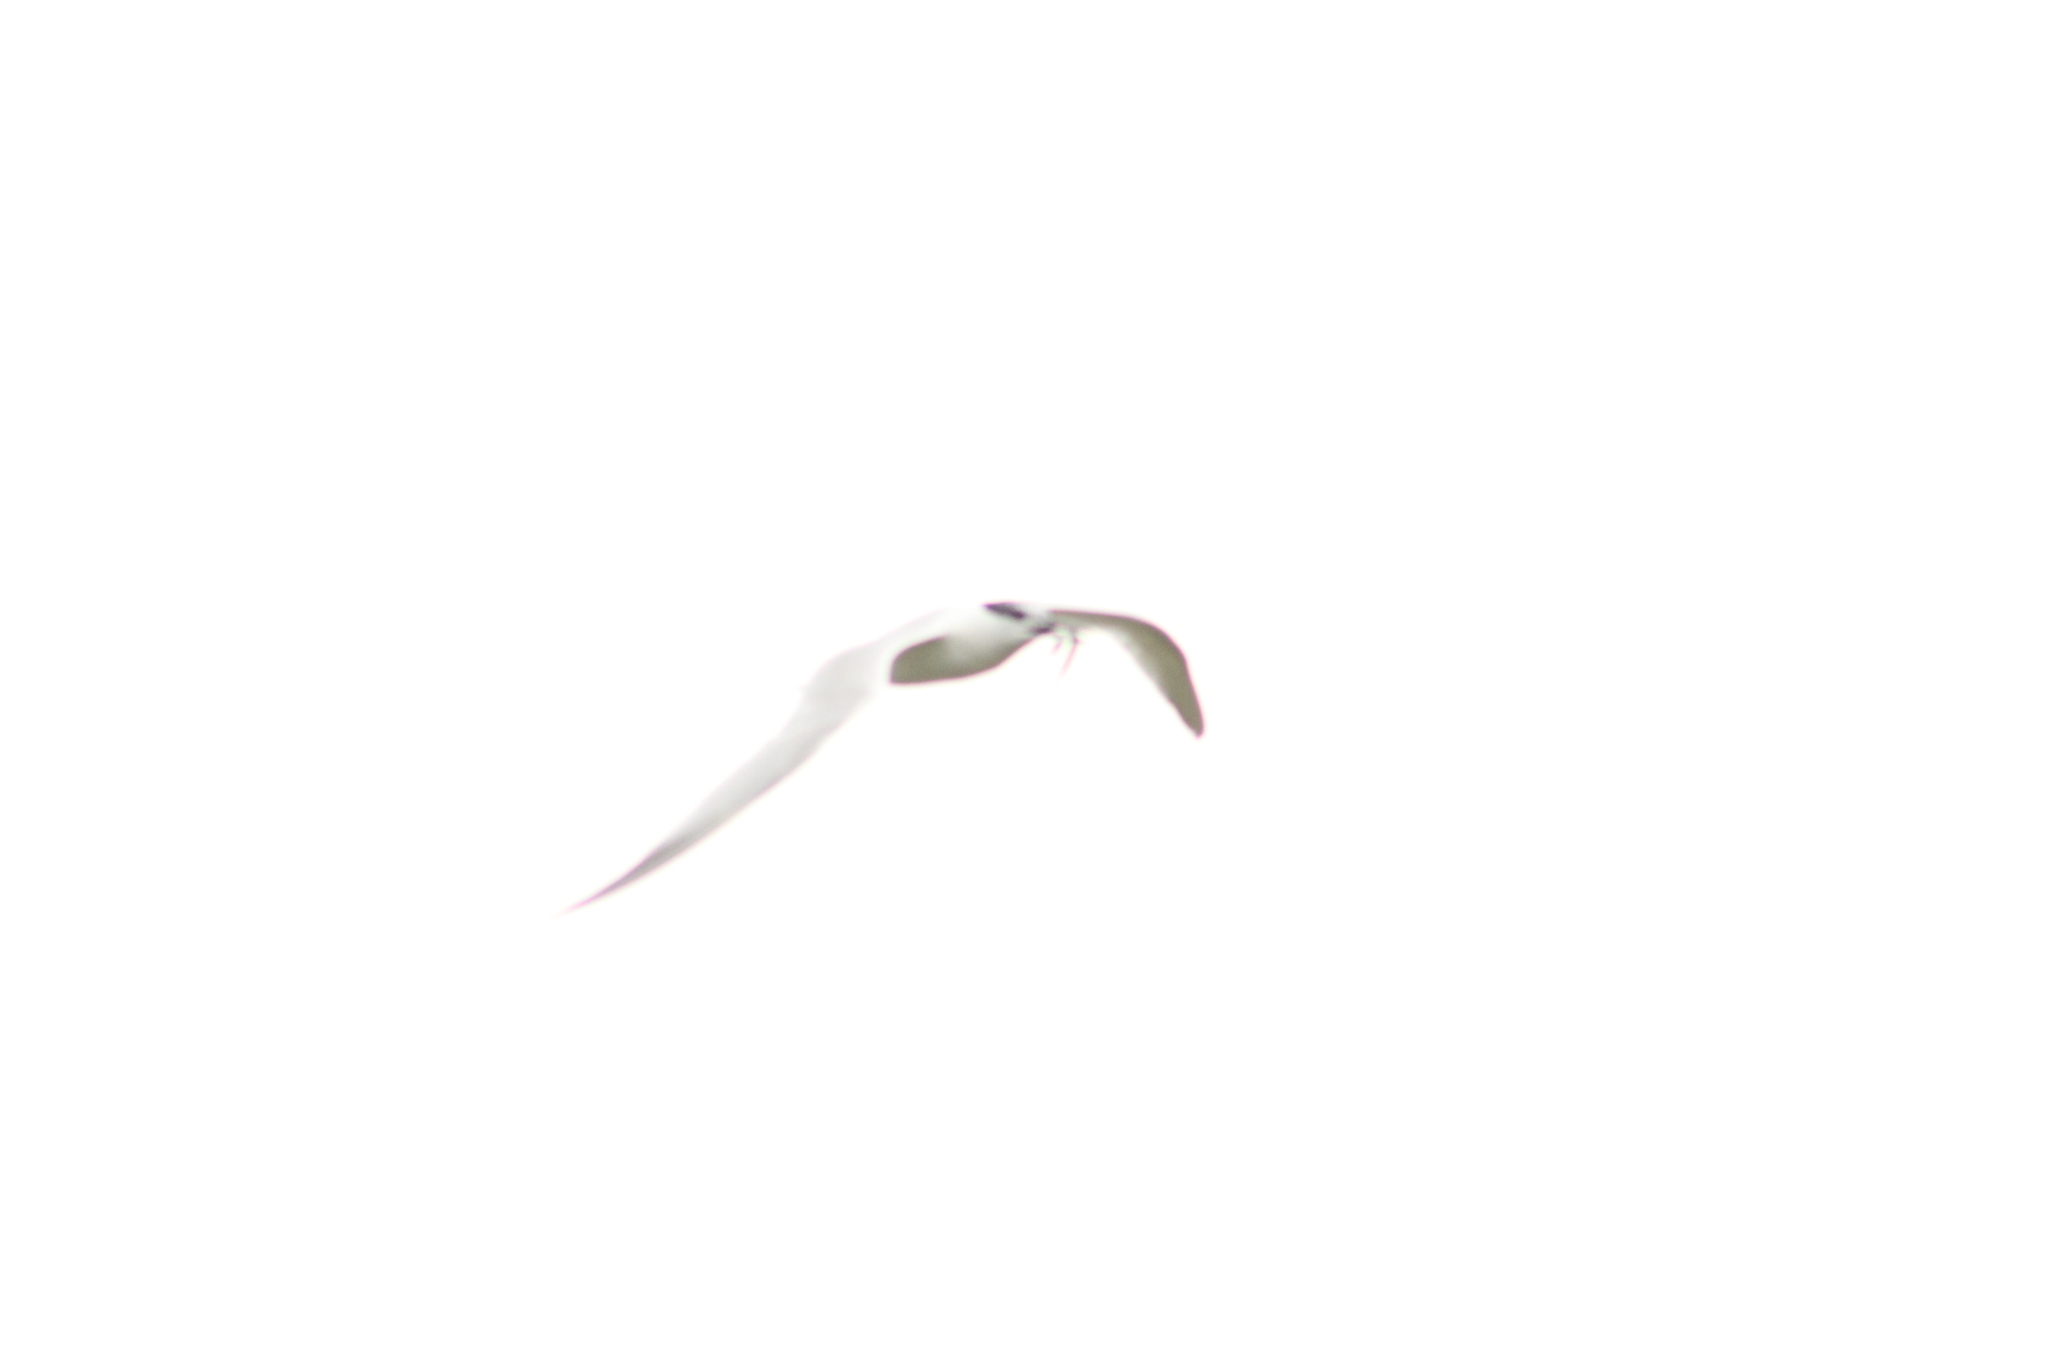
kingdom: Animalia
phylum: Chordata
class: Aves
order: Charadriiformes
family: Laridae
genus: Thalasseus
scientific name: Thalasseus sandvicensis
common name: Sandwich tern
